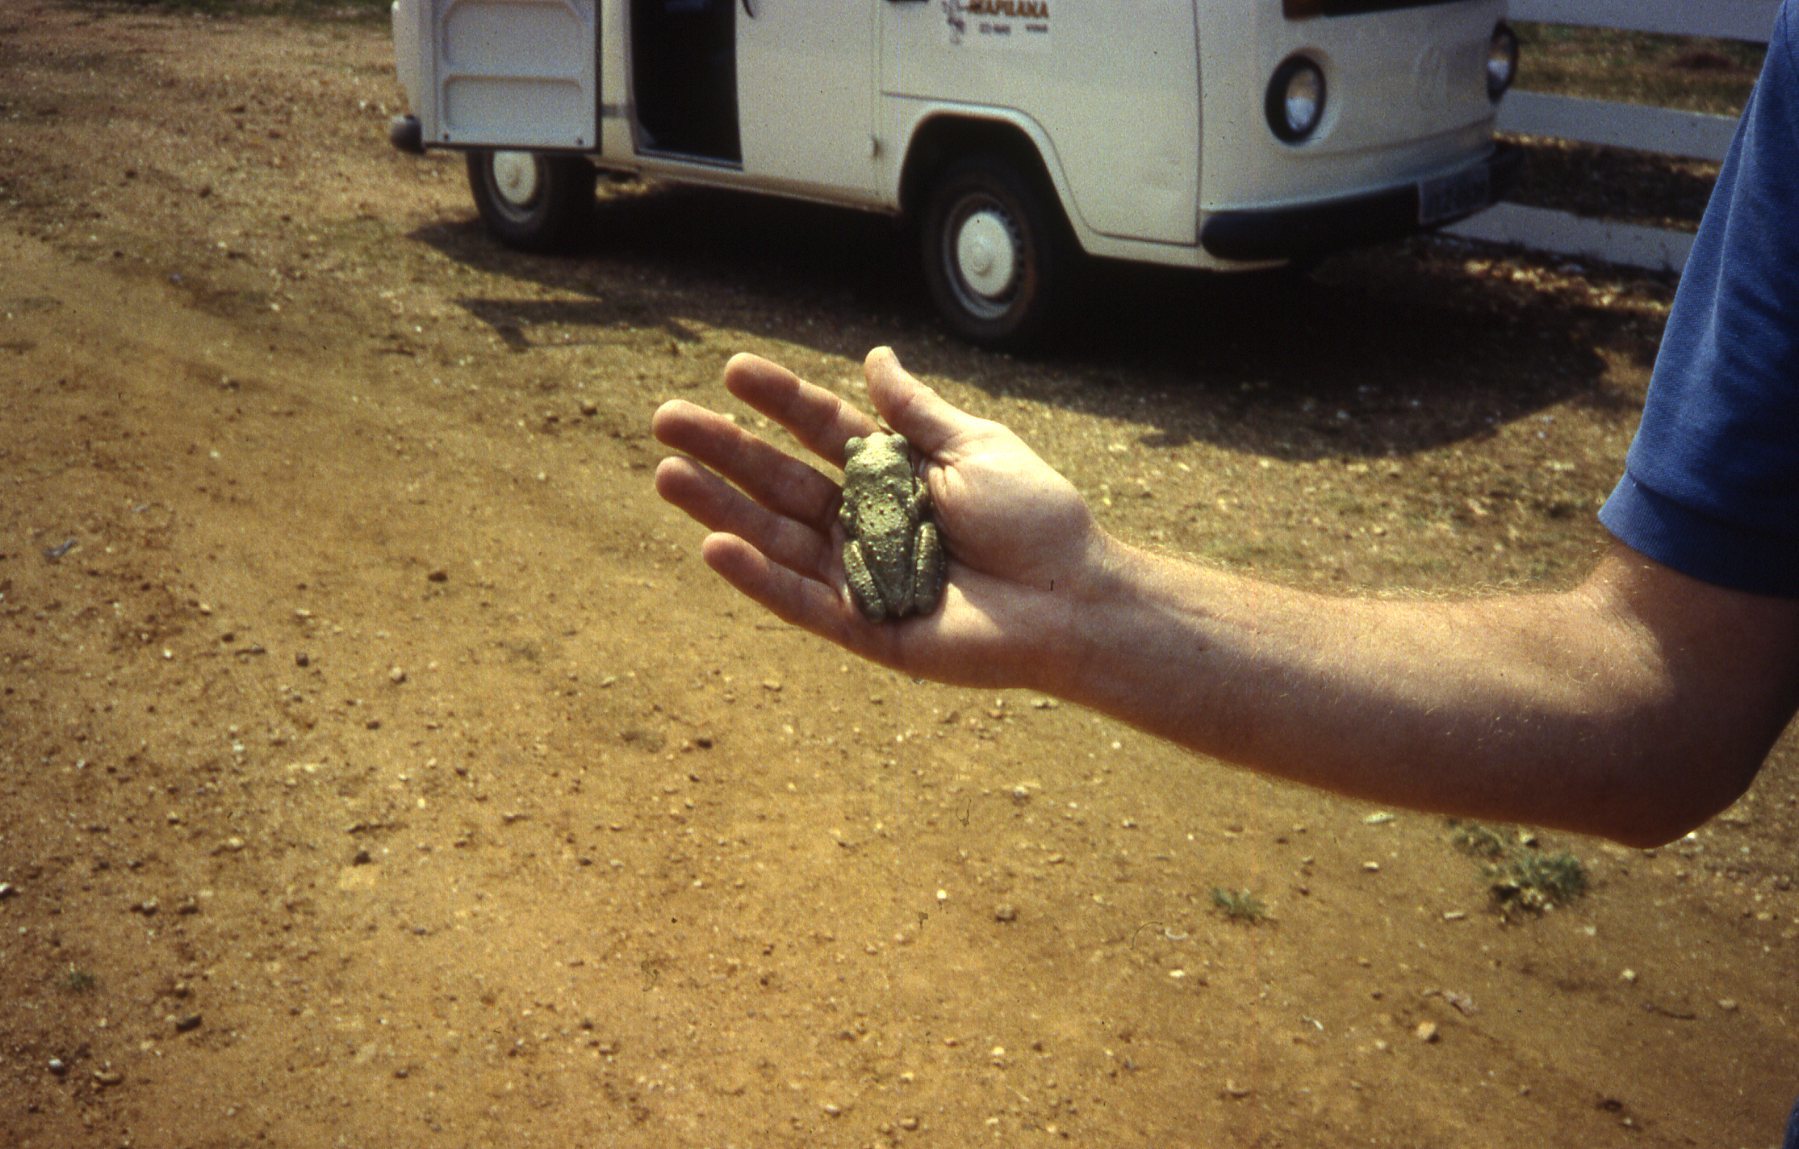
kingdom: Animalia
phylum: Chordata
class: Amphibia
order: Anura
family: Hylidae
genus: Trachycephalus
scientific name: Trachycephalus typhonius
